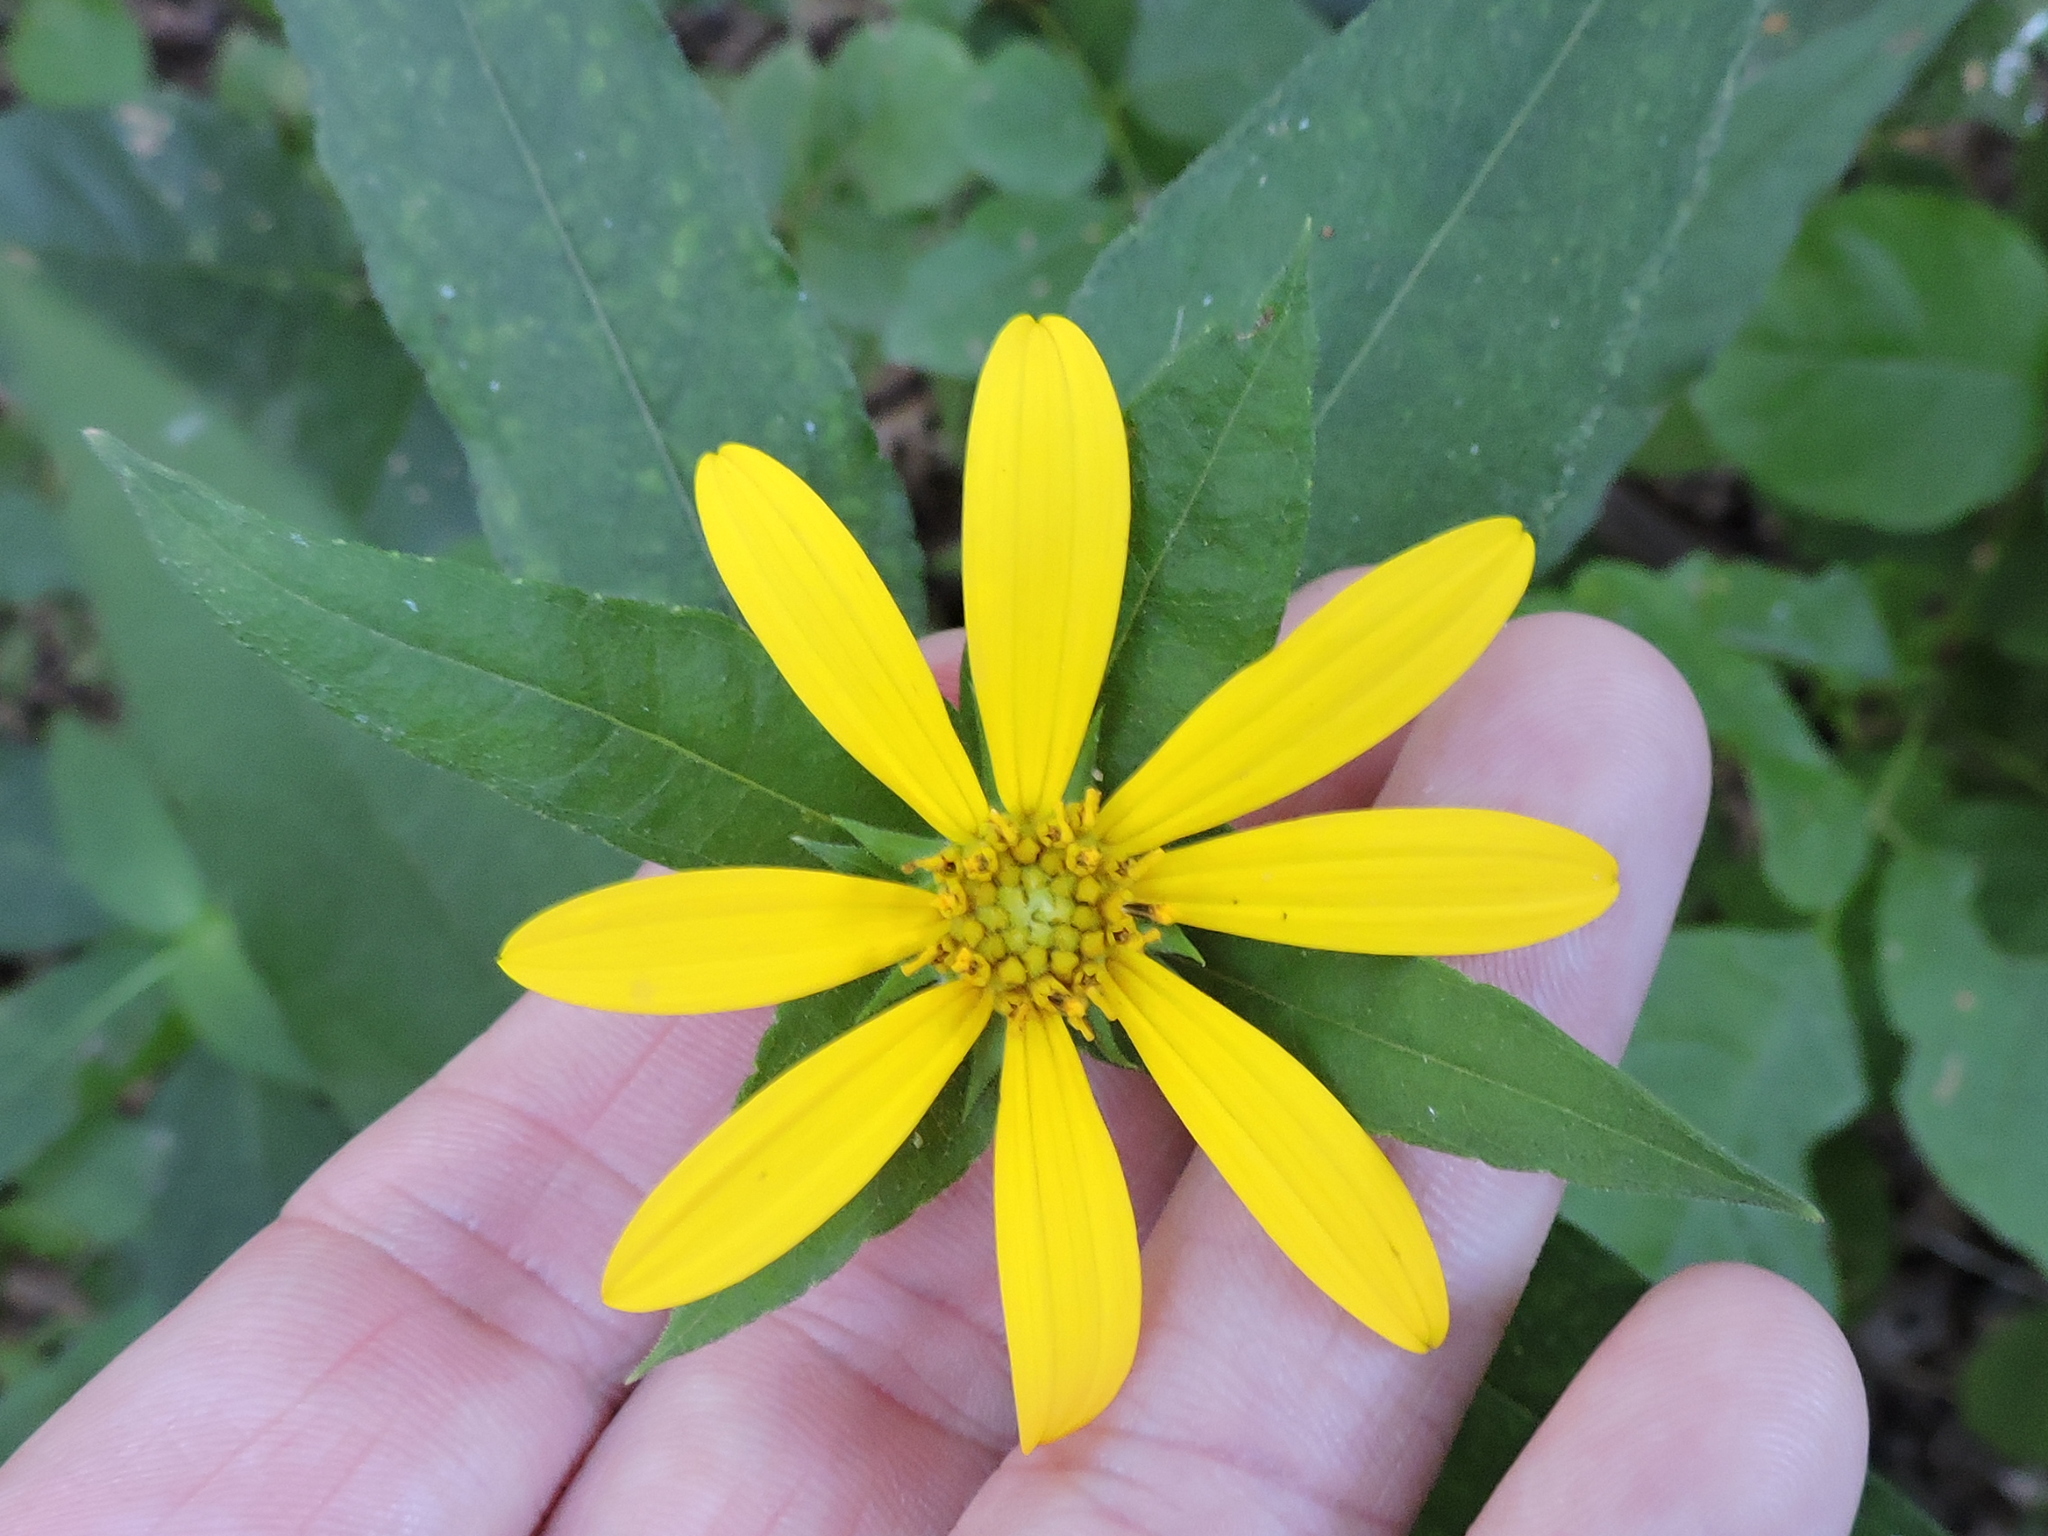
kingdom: Plantae
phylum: Tracheophyta
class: Magnoliopsida
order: Asterales
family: Asteraceae
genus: Helianthus
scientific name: Helianthus hirsutus
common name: Hairy sunflower
